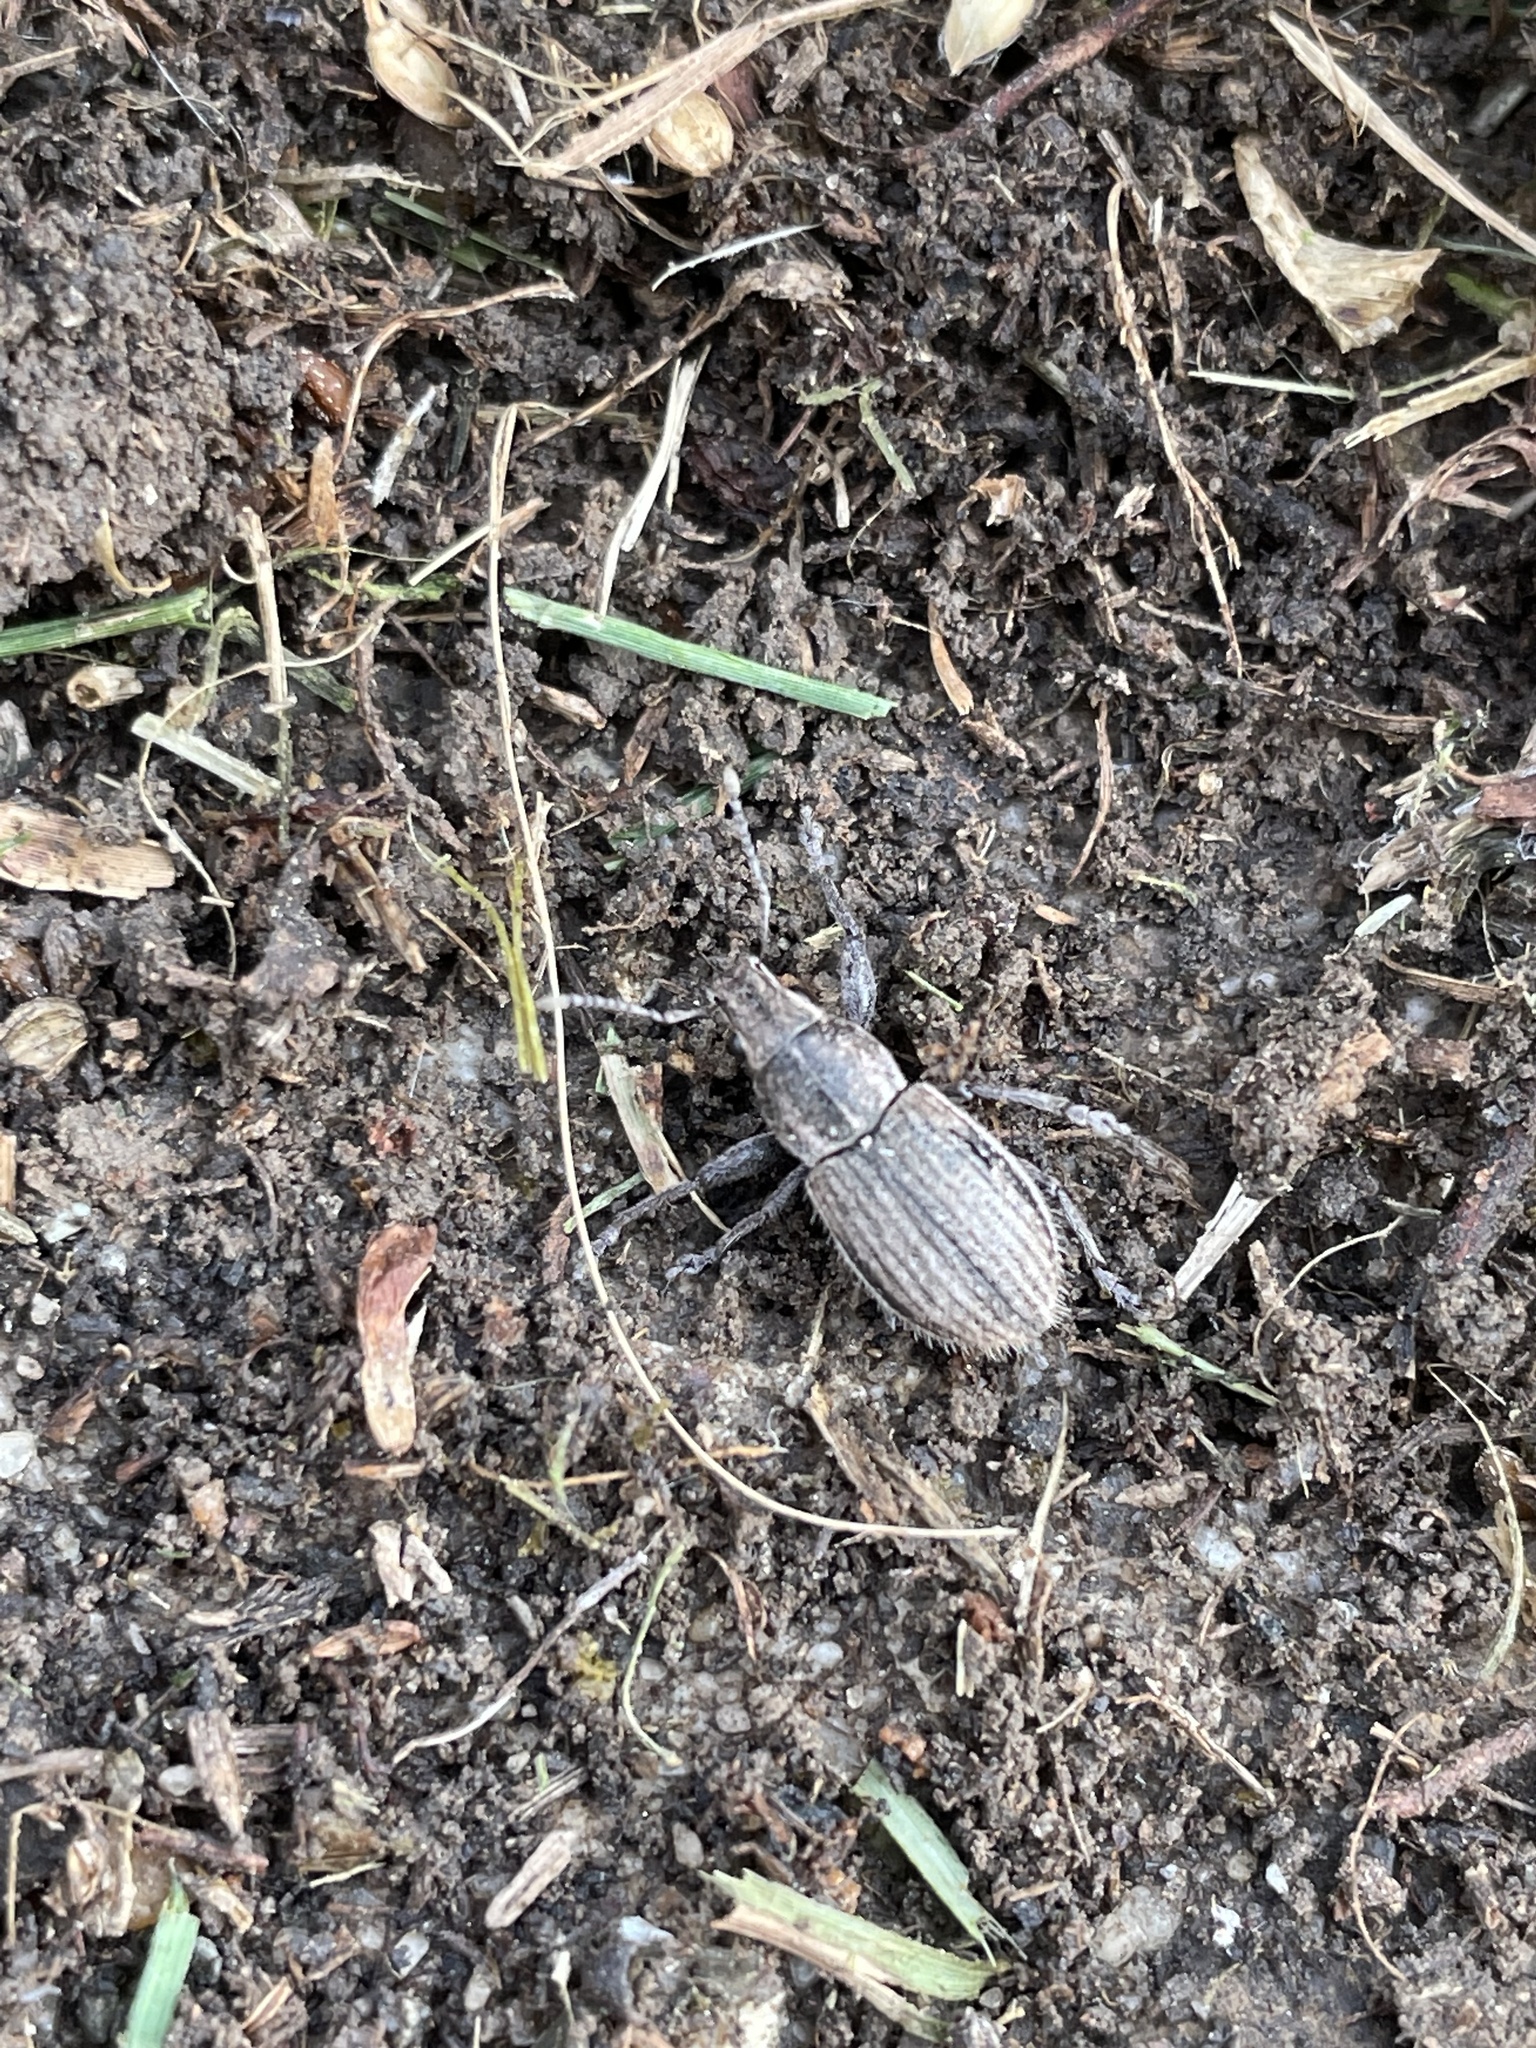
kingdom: Animalia
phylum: Arthropoda
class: Insecta
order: Coleoptera
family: Curculionidae
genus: Naupactus
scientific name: Naupactus leucoloma
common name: Whitefringed beetle
